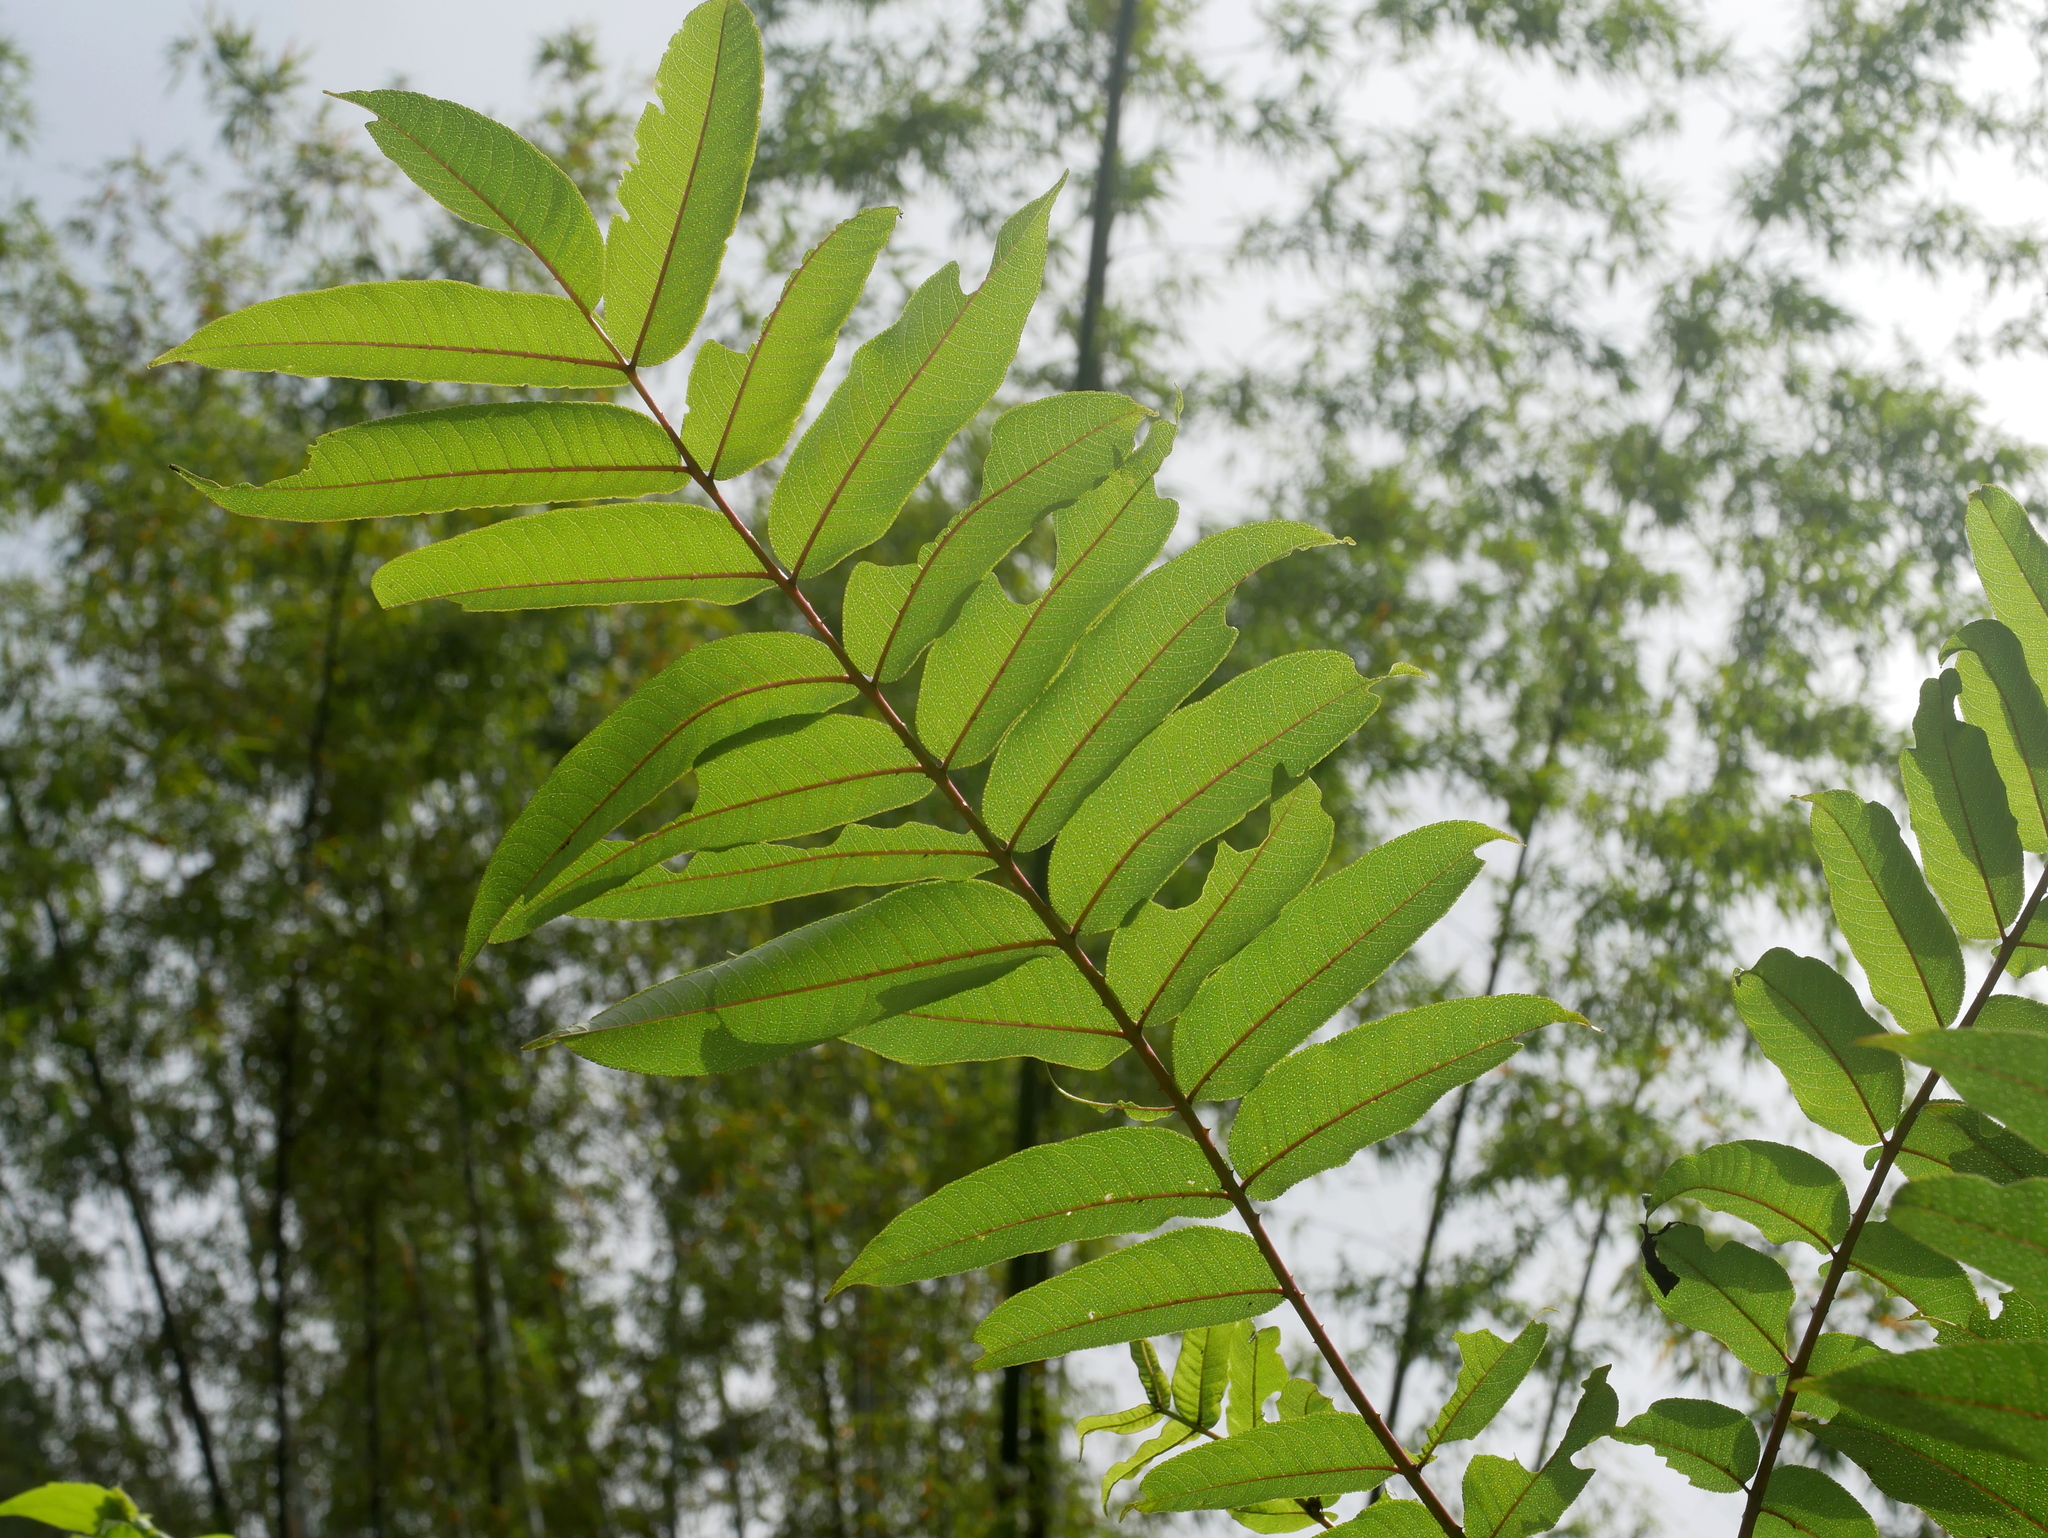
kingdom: Plantae
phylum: Tracheophyta
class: Magnoliopsida
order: Sapindales
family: Rutaceae
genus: Zanthoxylum
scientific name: Zanthoxylum ailanthoides
